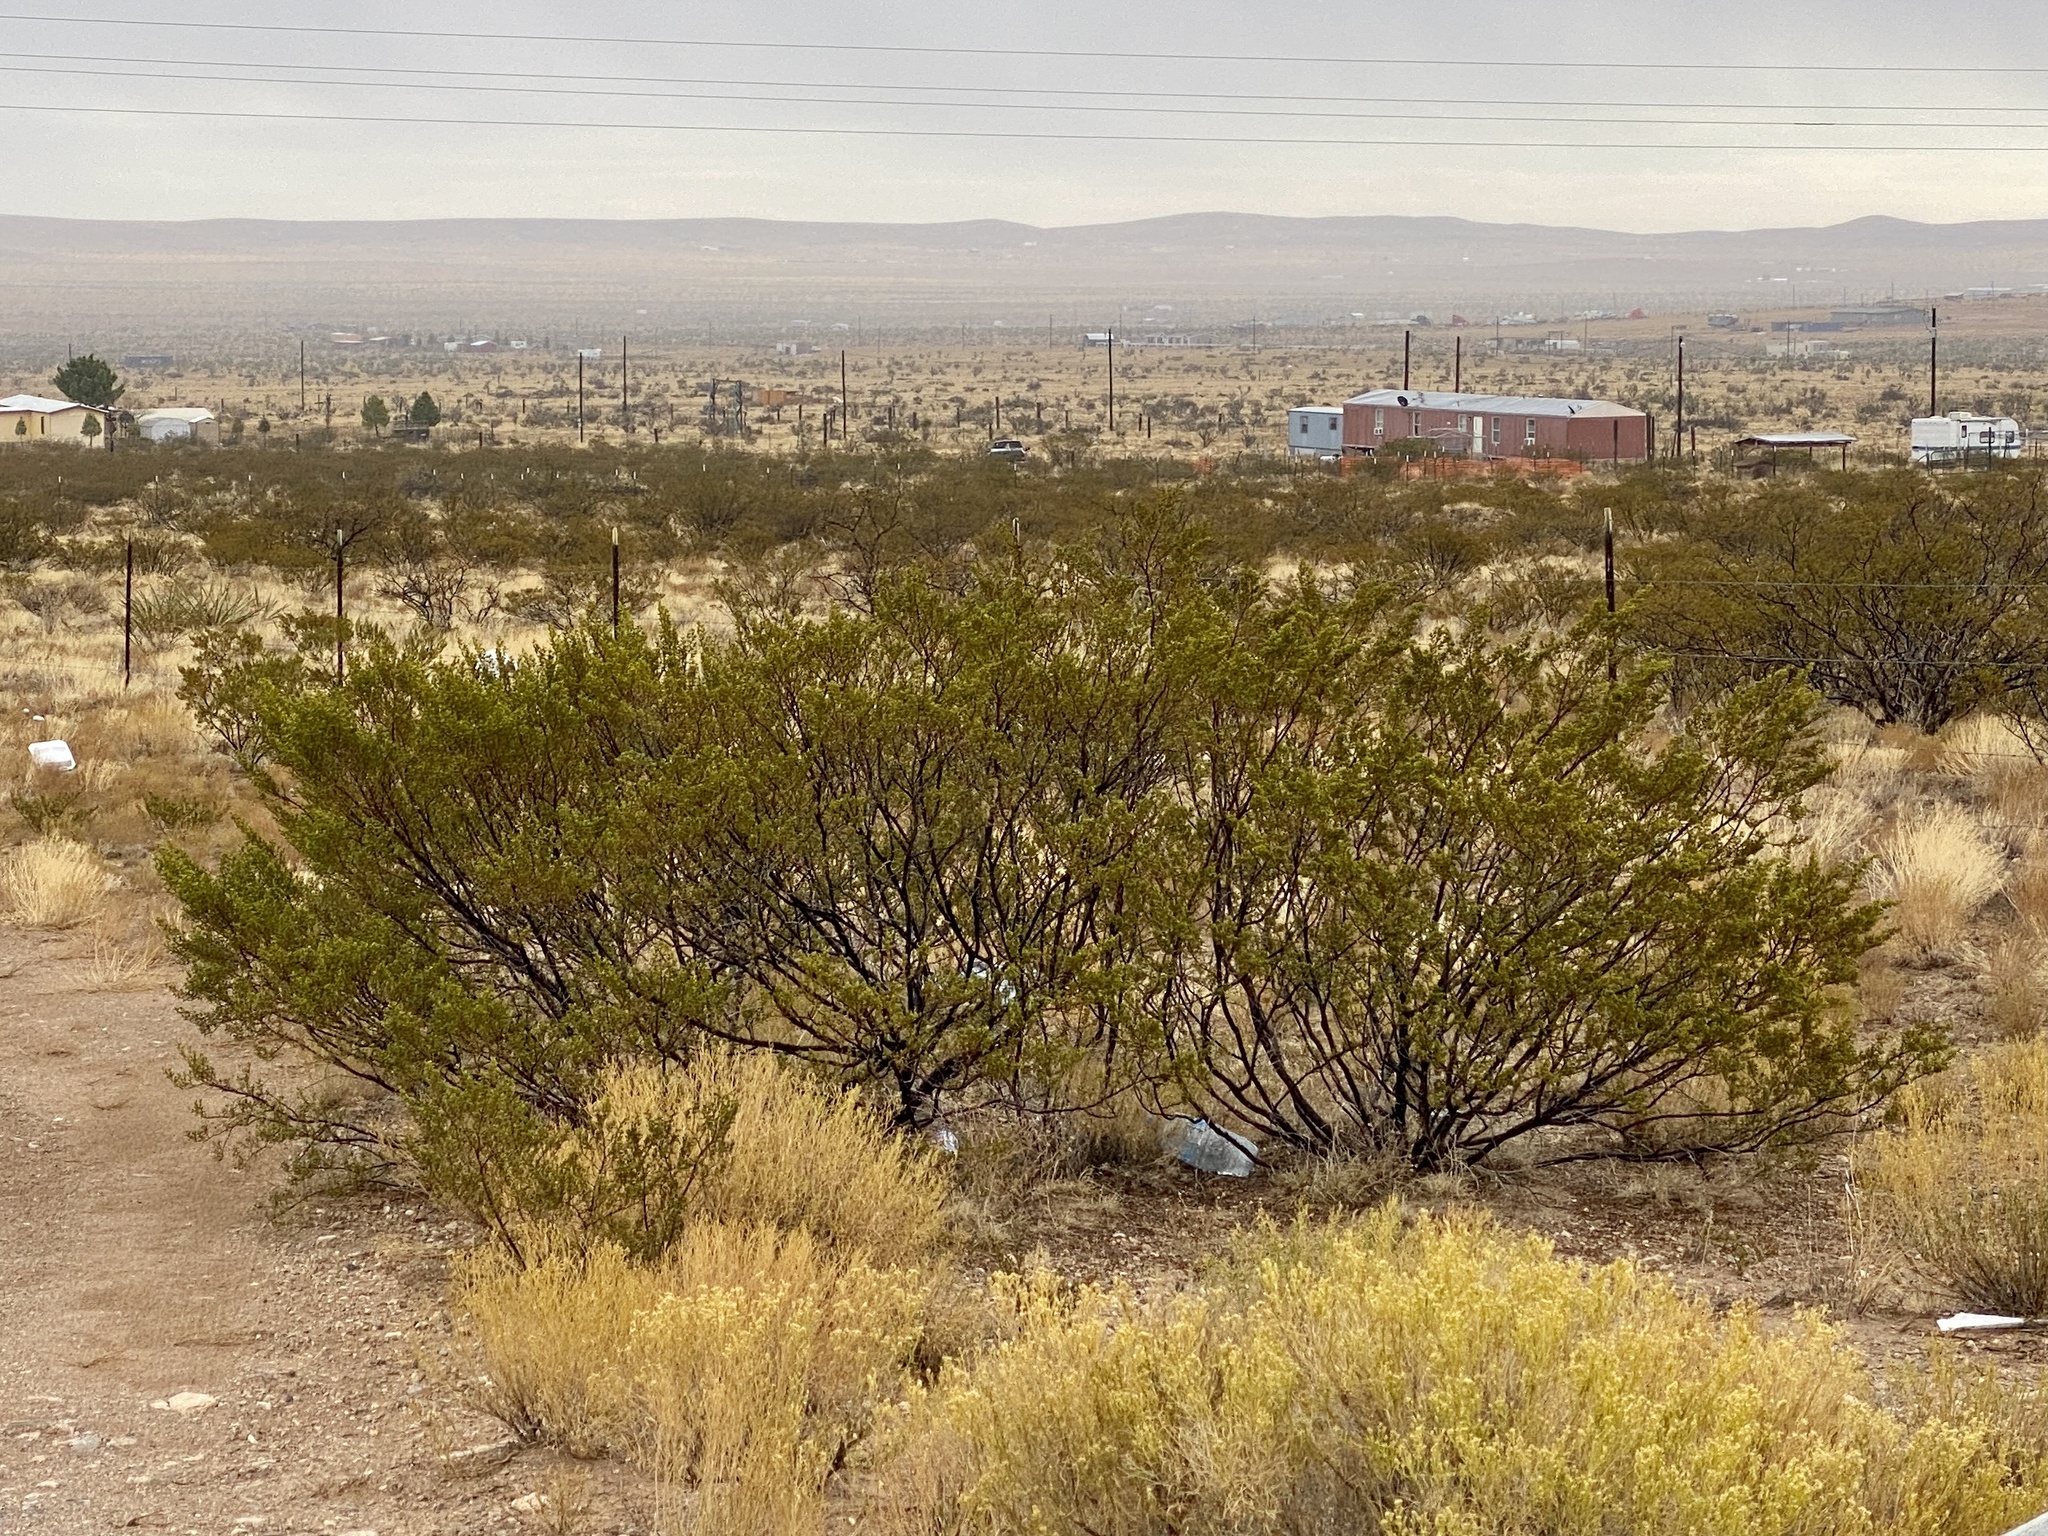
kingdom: Plantae
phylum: Tracheophyta
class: Magnoliopsida
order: Zygophyllales
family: Zygophyllaceae
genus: Larrea
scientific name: Larrea tridentata
